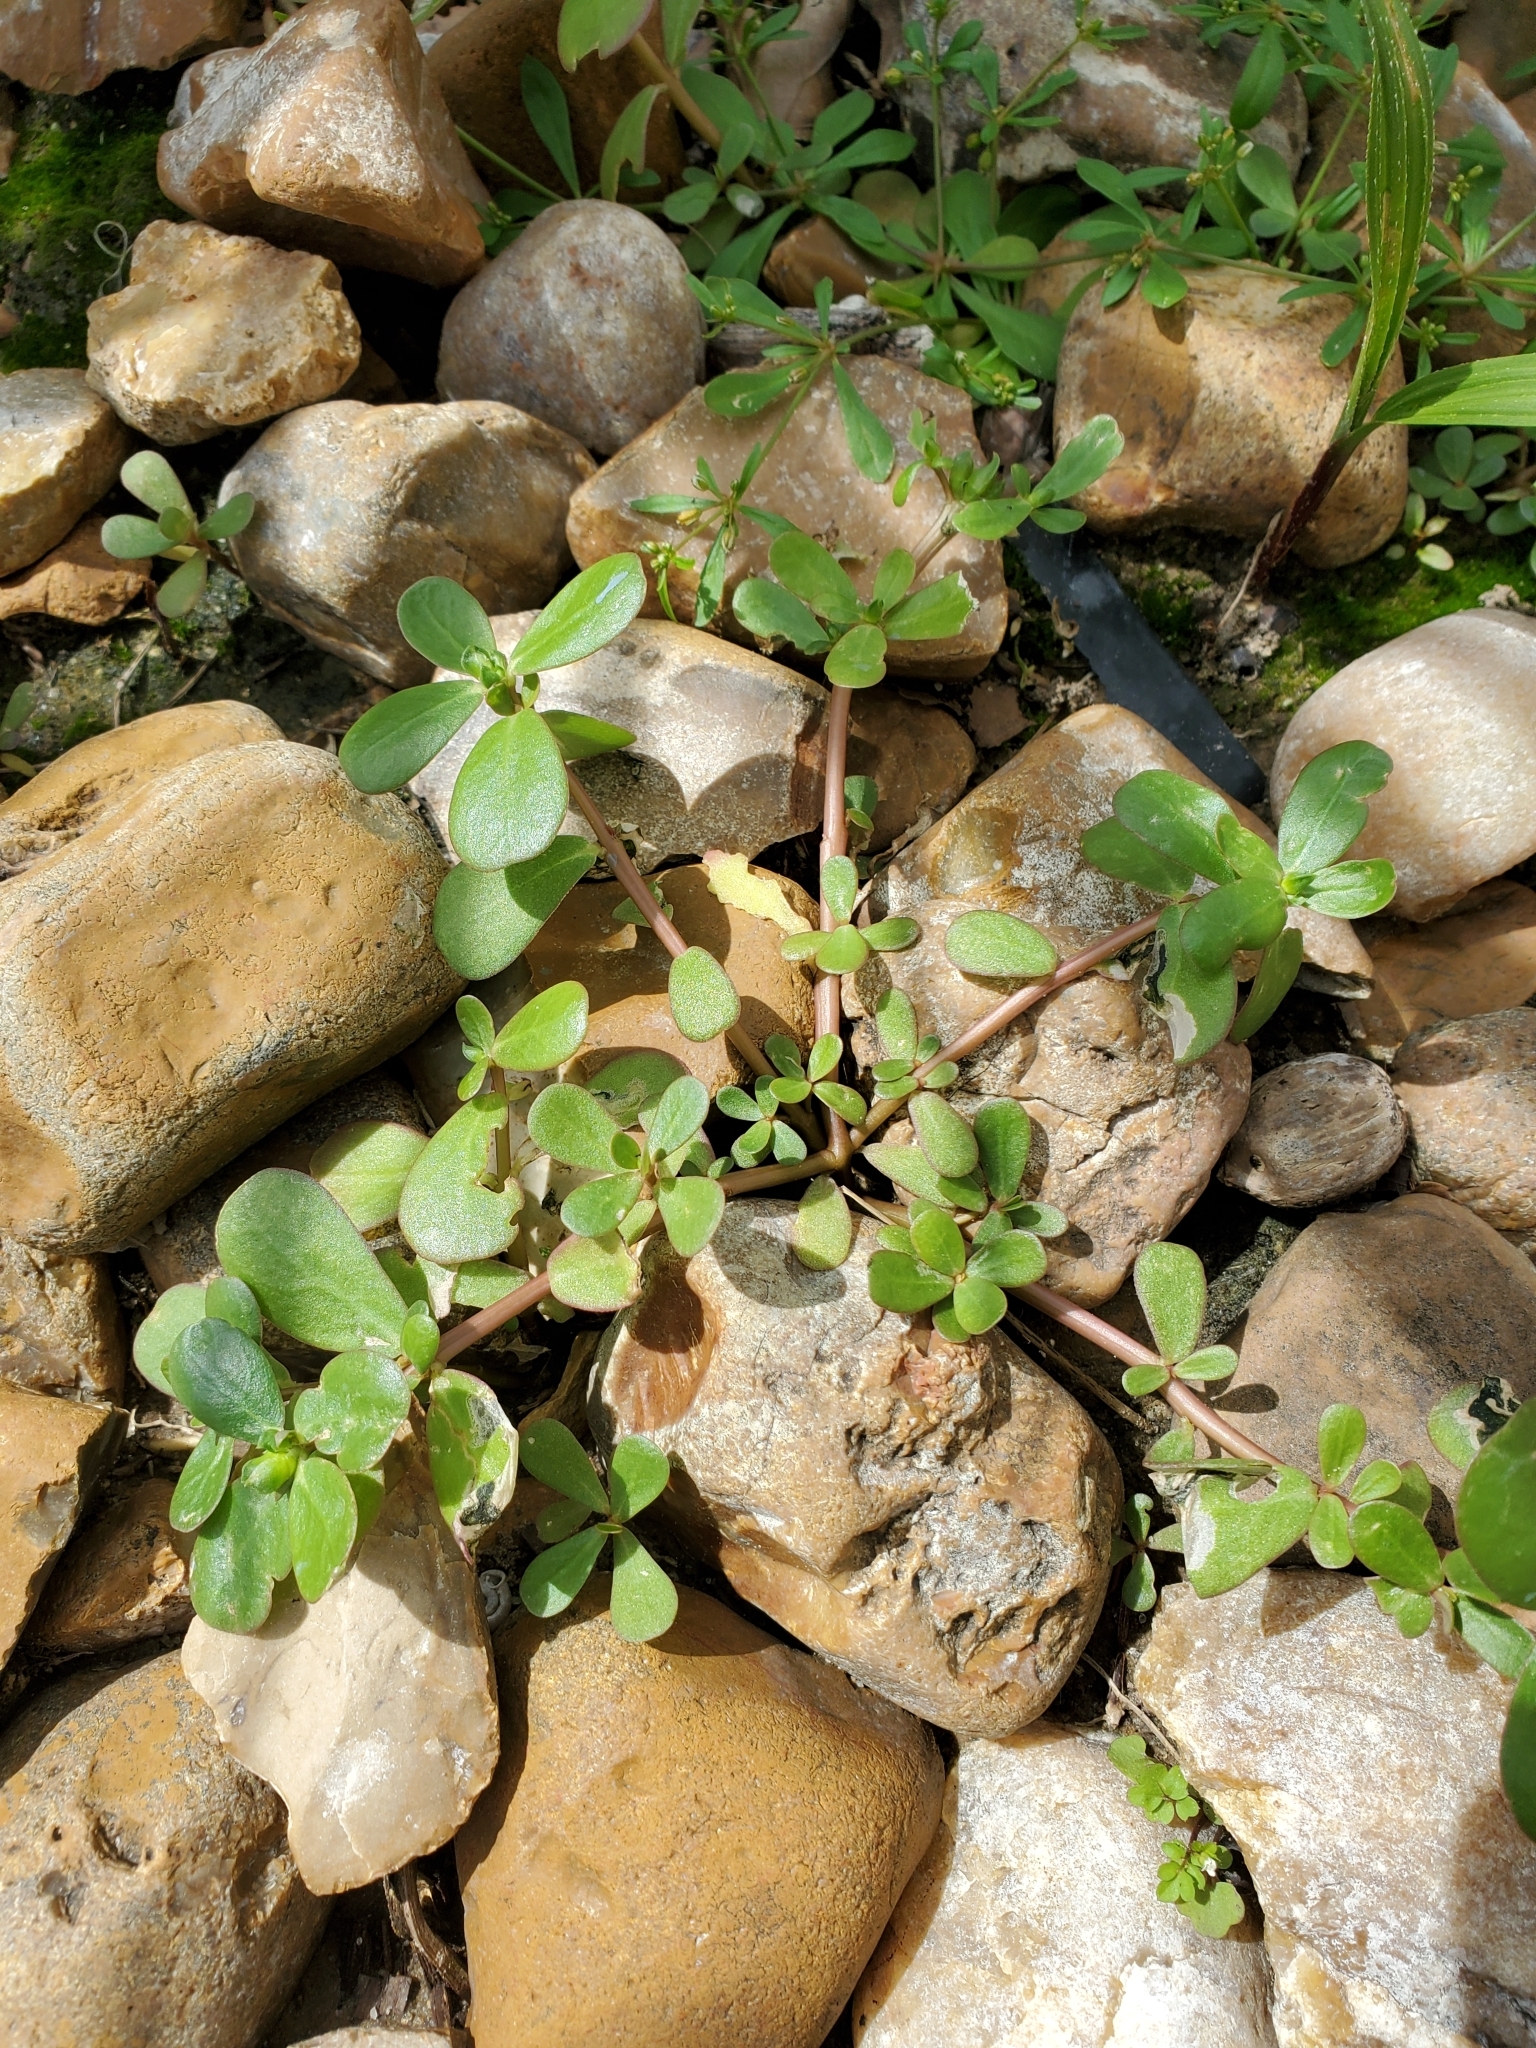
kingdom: Plantae
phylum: Tracheophyta
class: Magnoliopsida
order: Caryophyllales
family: Portulacaceae
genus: Portulaca
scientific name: Portulaca oleracea
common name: Common purslane
